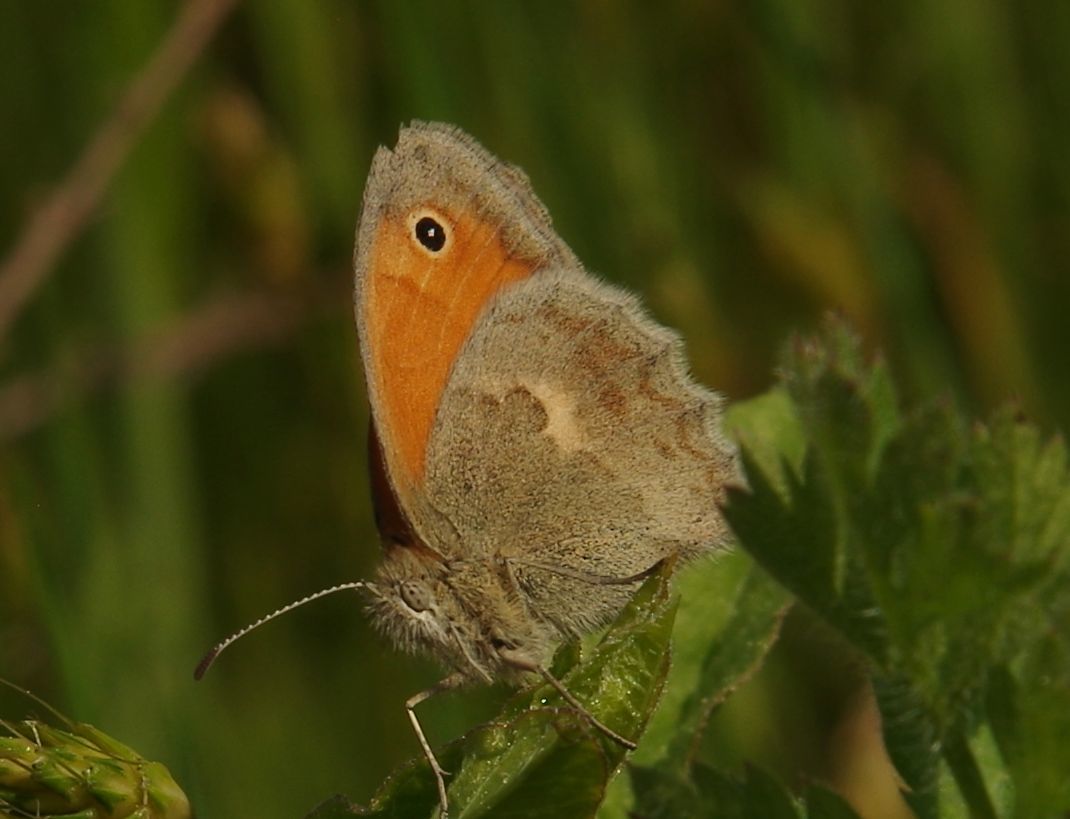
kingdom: Animalia
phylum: Arthropoda
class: Insecta
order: Lepidoptera
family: Nymphalidae
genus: Coenonympha
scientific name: Coenonympha pamphilus
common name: Small heath
